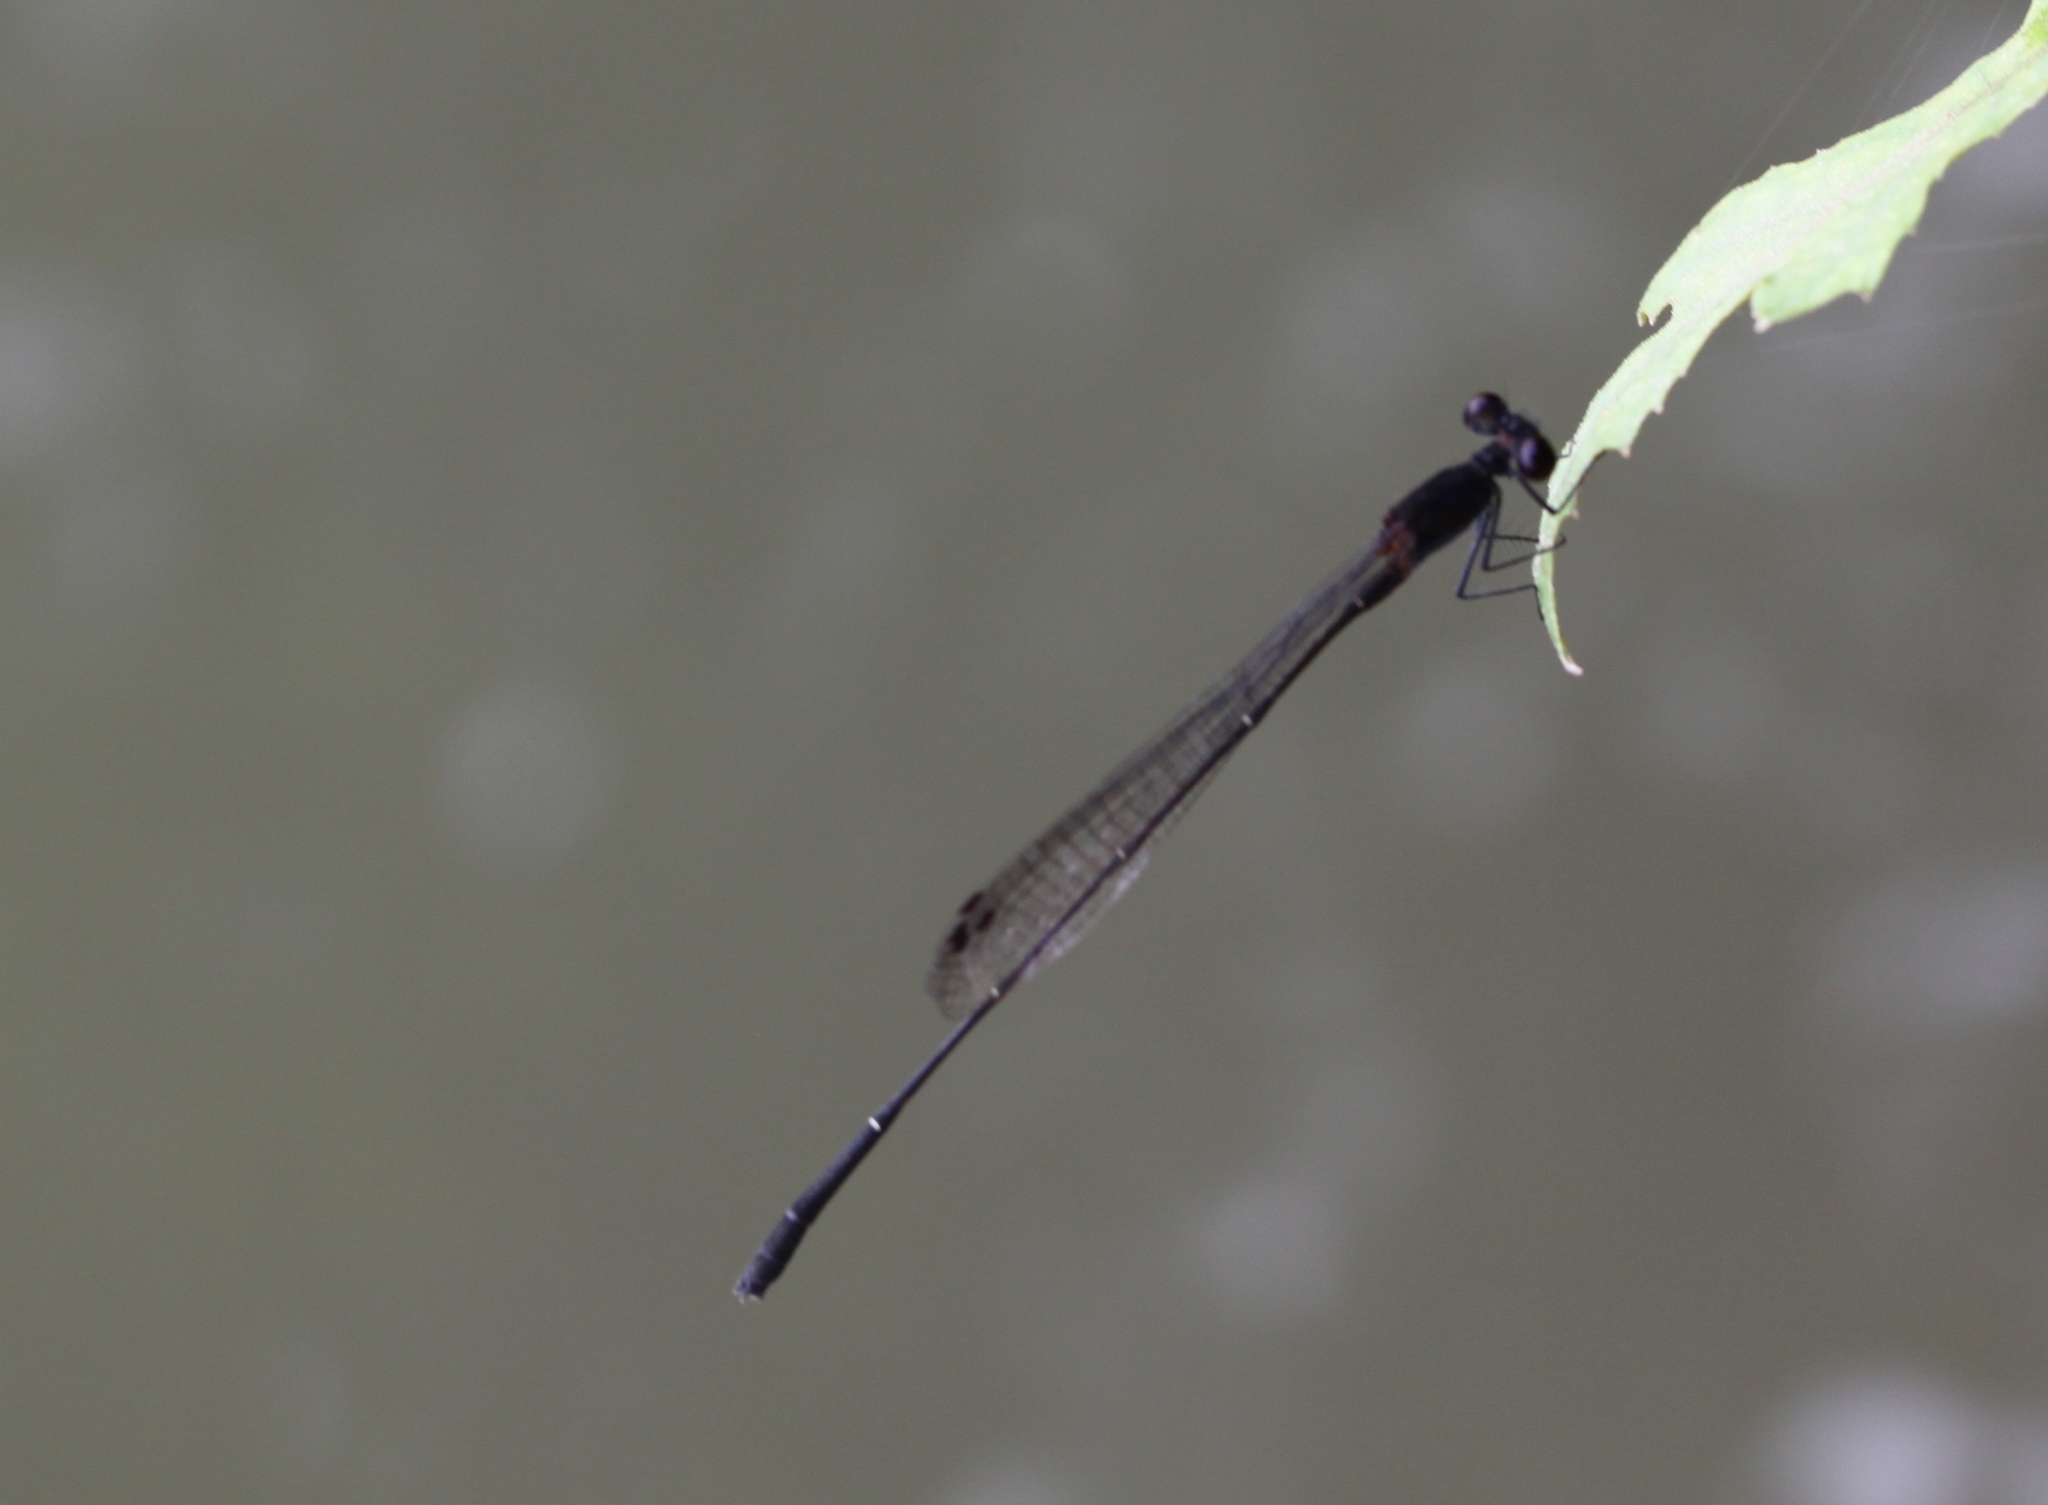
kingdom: Animalia
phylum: Arthropoda
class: Insecta
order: Odonata
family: Platycnemididae
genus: Prodasineura
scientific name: Prodasineura autumnalis
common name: Black threadtail
